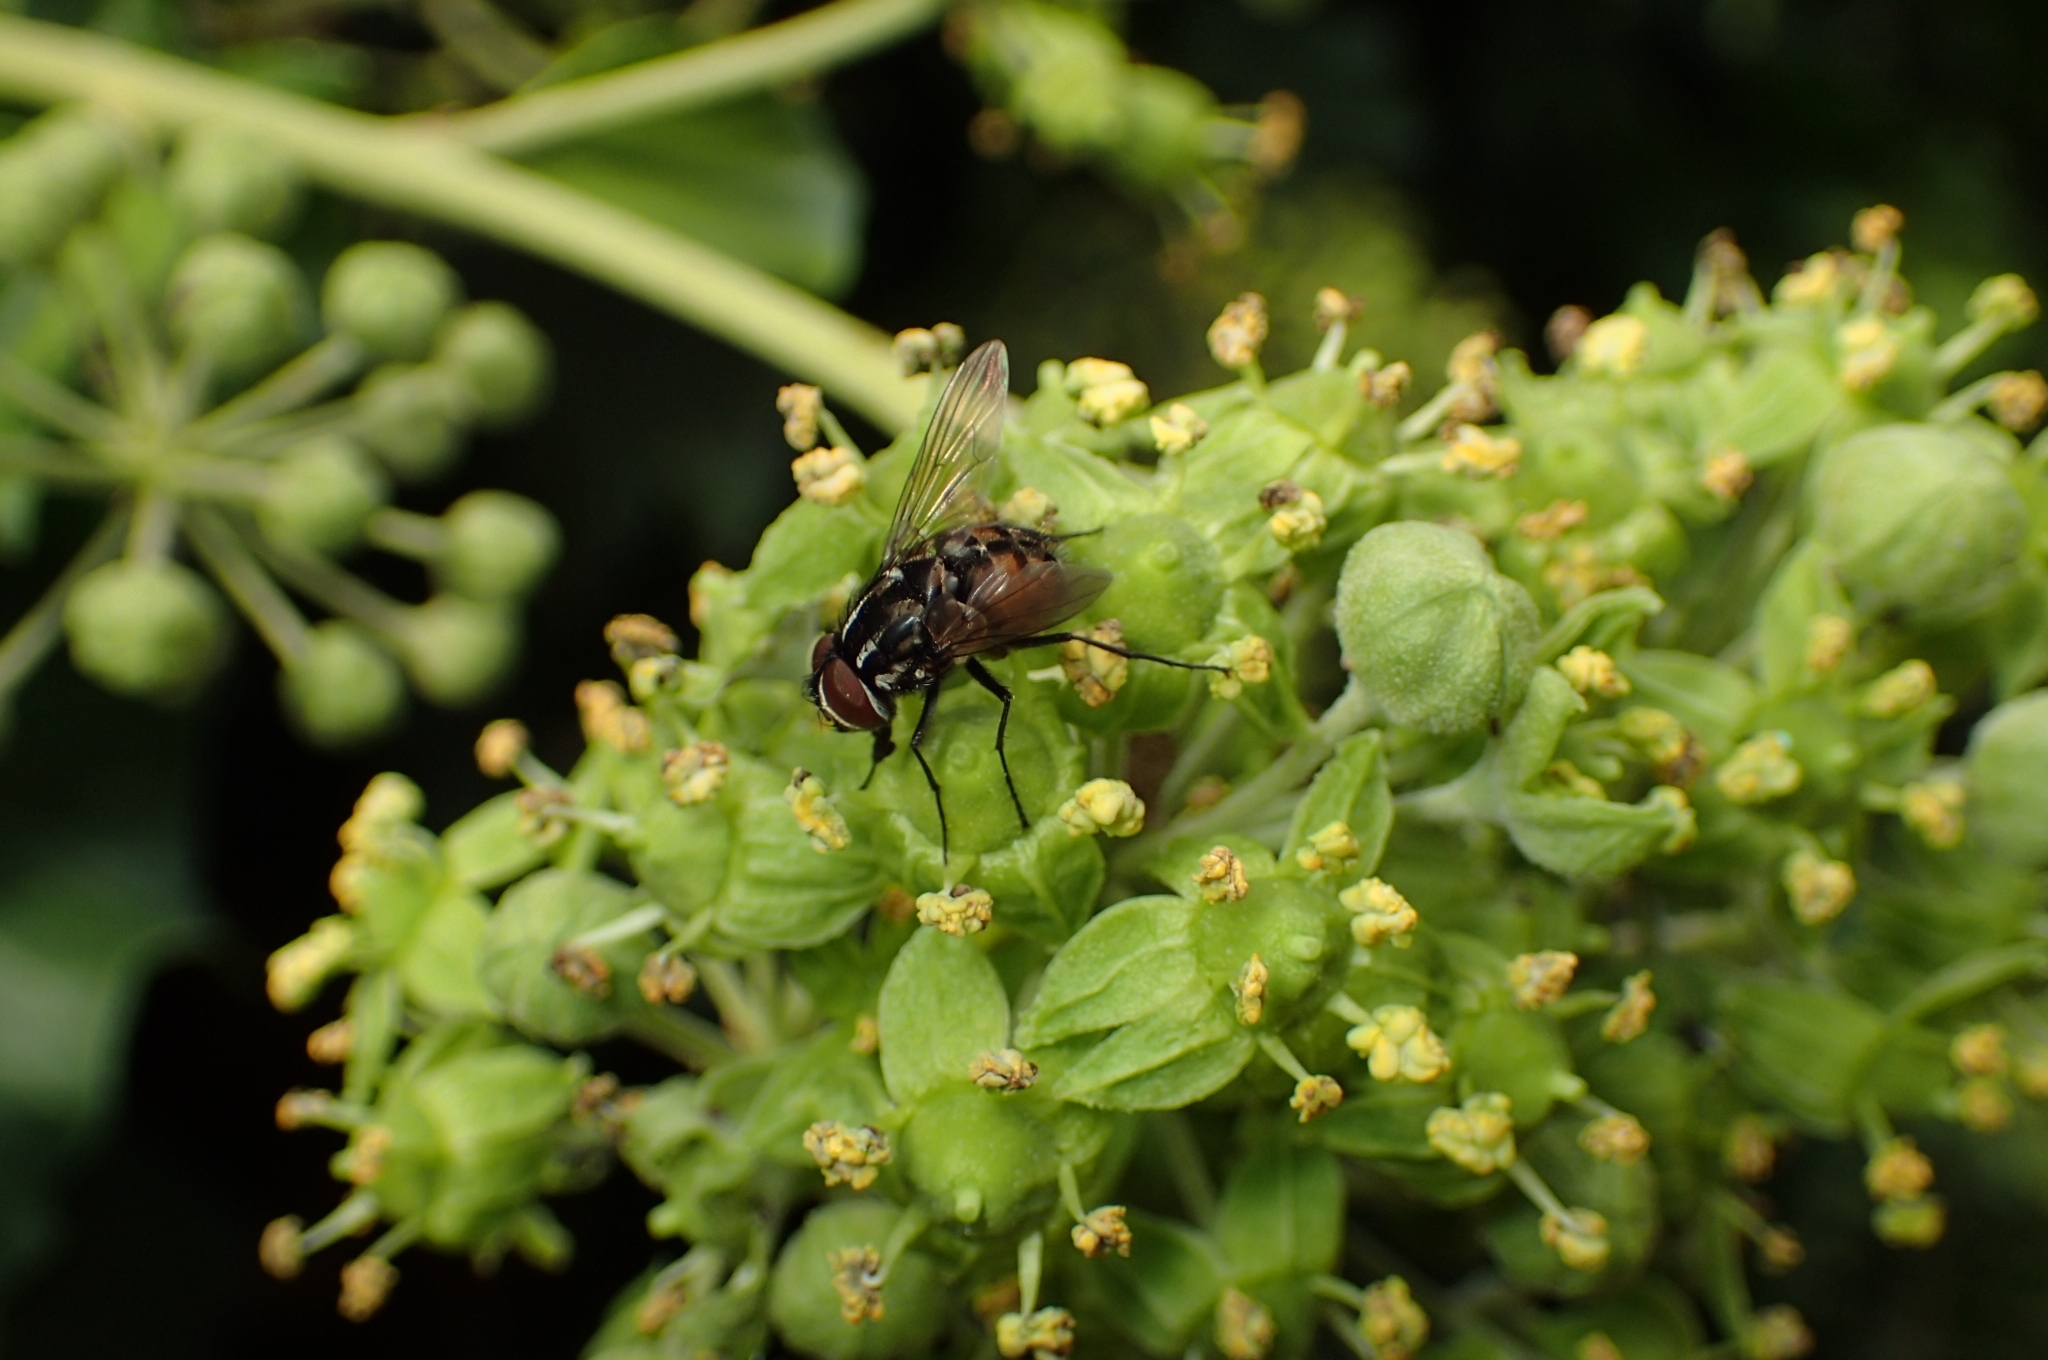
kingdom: Animalia
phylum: Arthropoda
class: Insecta
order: Diptera
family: Muscidae
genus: Graphomya
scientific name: Graphomya maculata
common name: Muscid fly
